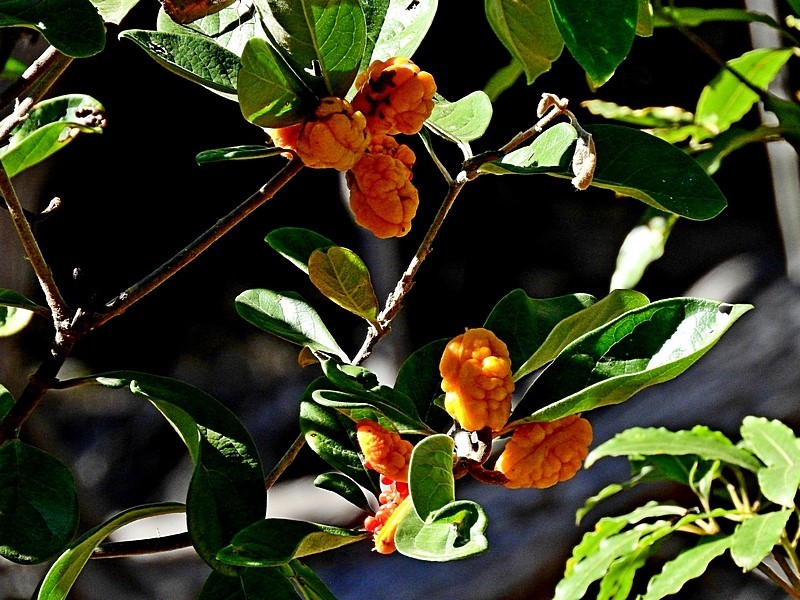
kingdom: Plantae
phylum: Tracheophyta
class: Magnoliopsida
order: Apiales
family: Pittosporaceae
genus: Pittosporum
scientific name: Pittosporum revolutum
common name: Brisbane-laurel
